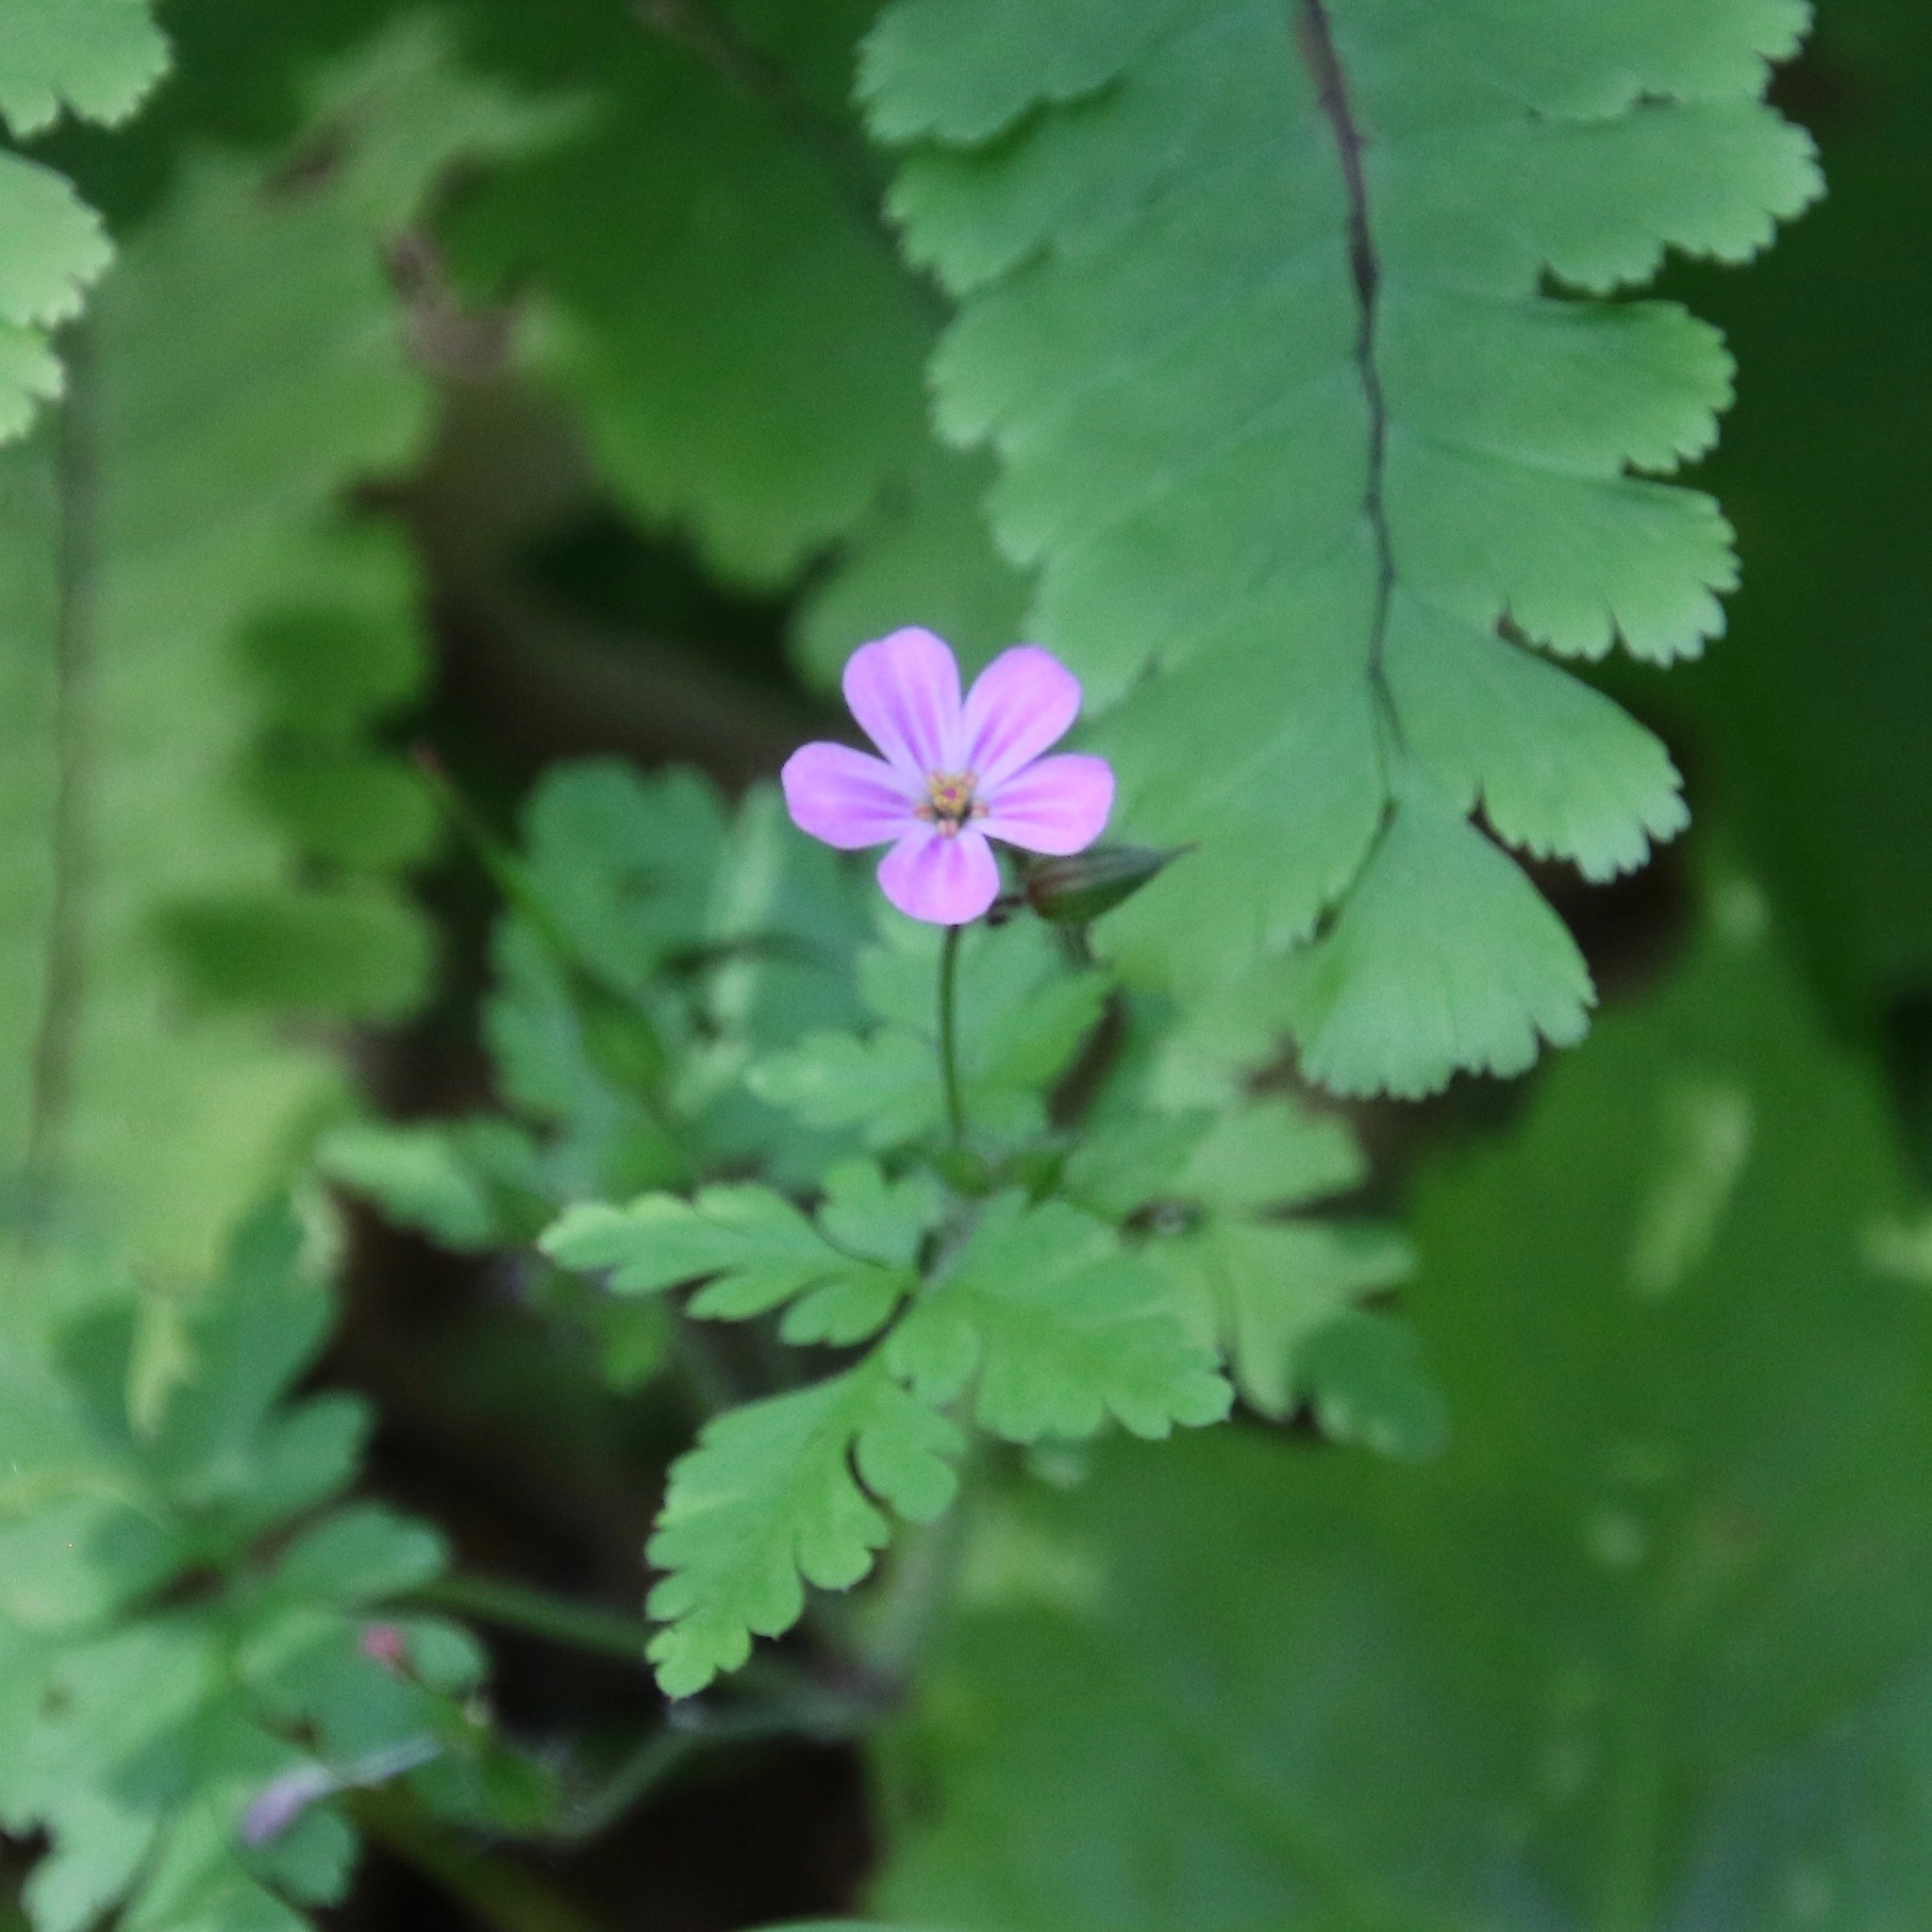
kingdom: Plantae
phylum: Tracheophyta
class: Magnoliopsida
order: Geraniales
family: Geraniaceae
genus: Geranium
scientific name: Geranium robertianum
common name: Herb-robert
